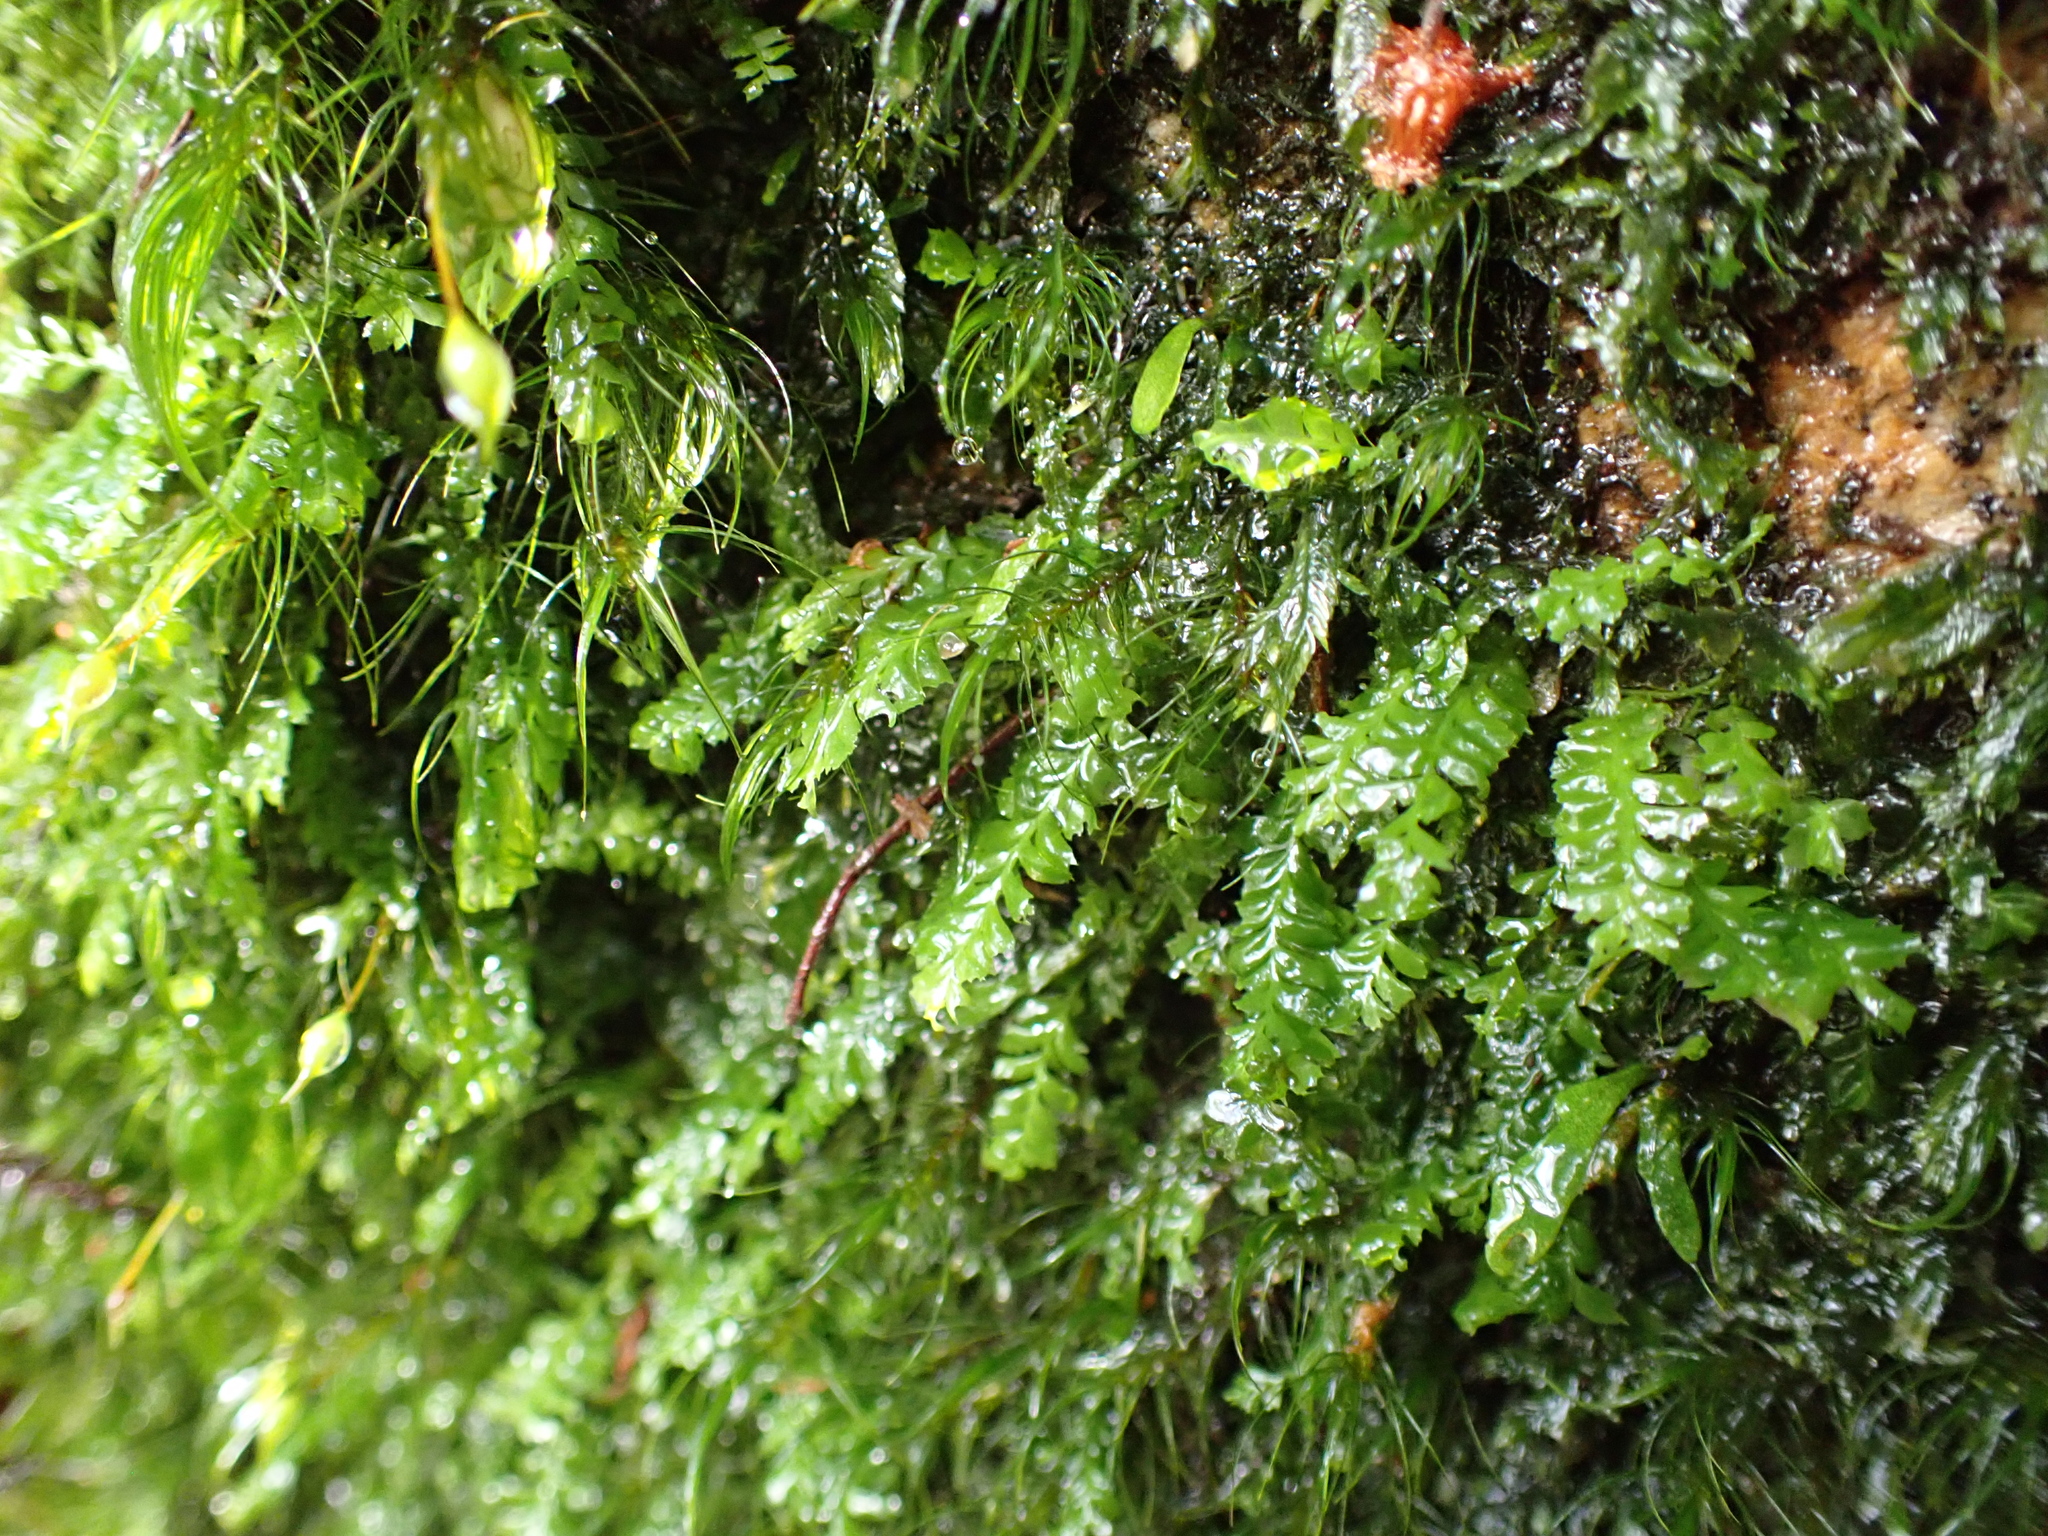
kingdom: Plantae
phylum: Marchantiophyta
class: Jungermanniopsida
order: Jungermanniales
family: Acrobolbaceae
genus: Acrobolbus
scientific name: Acrobolbus tenellus
